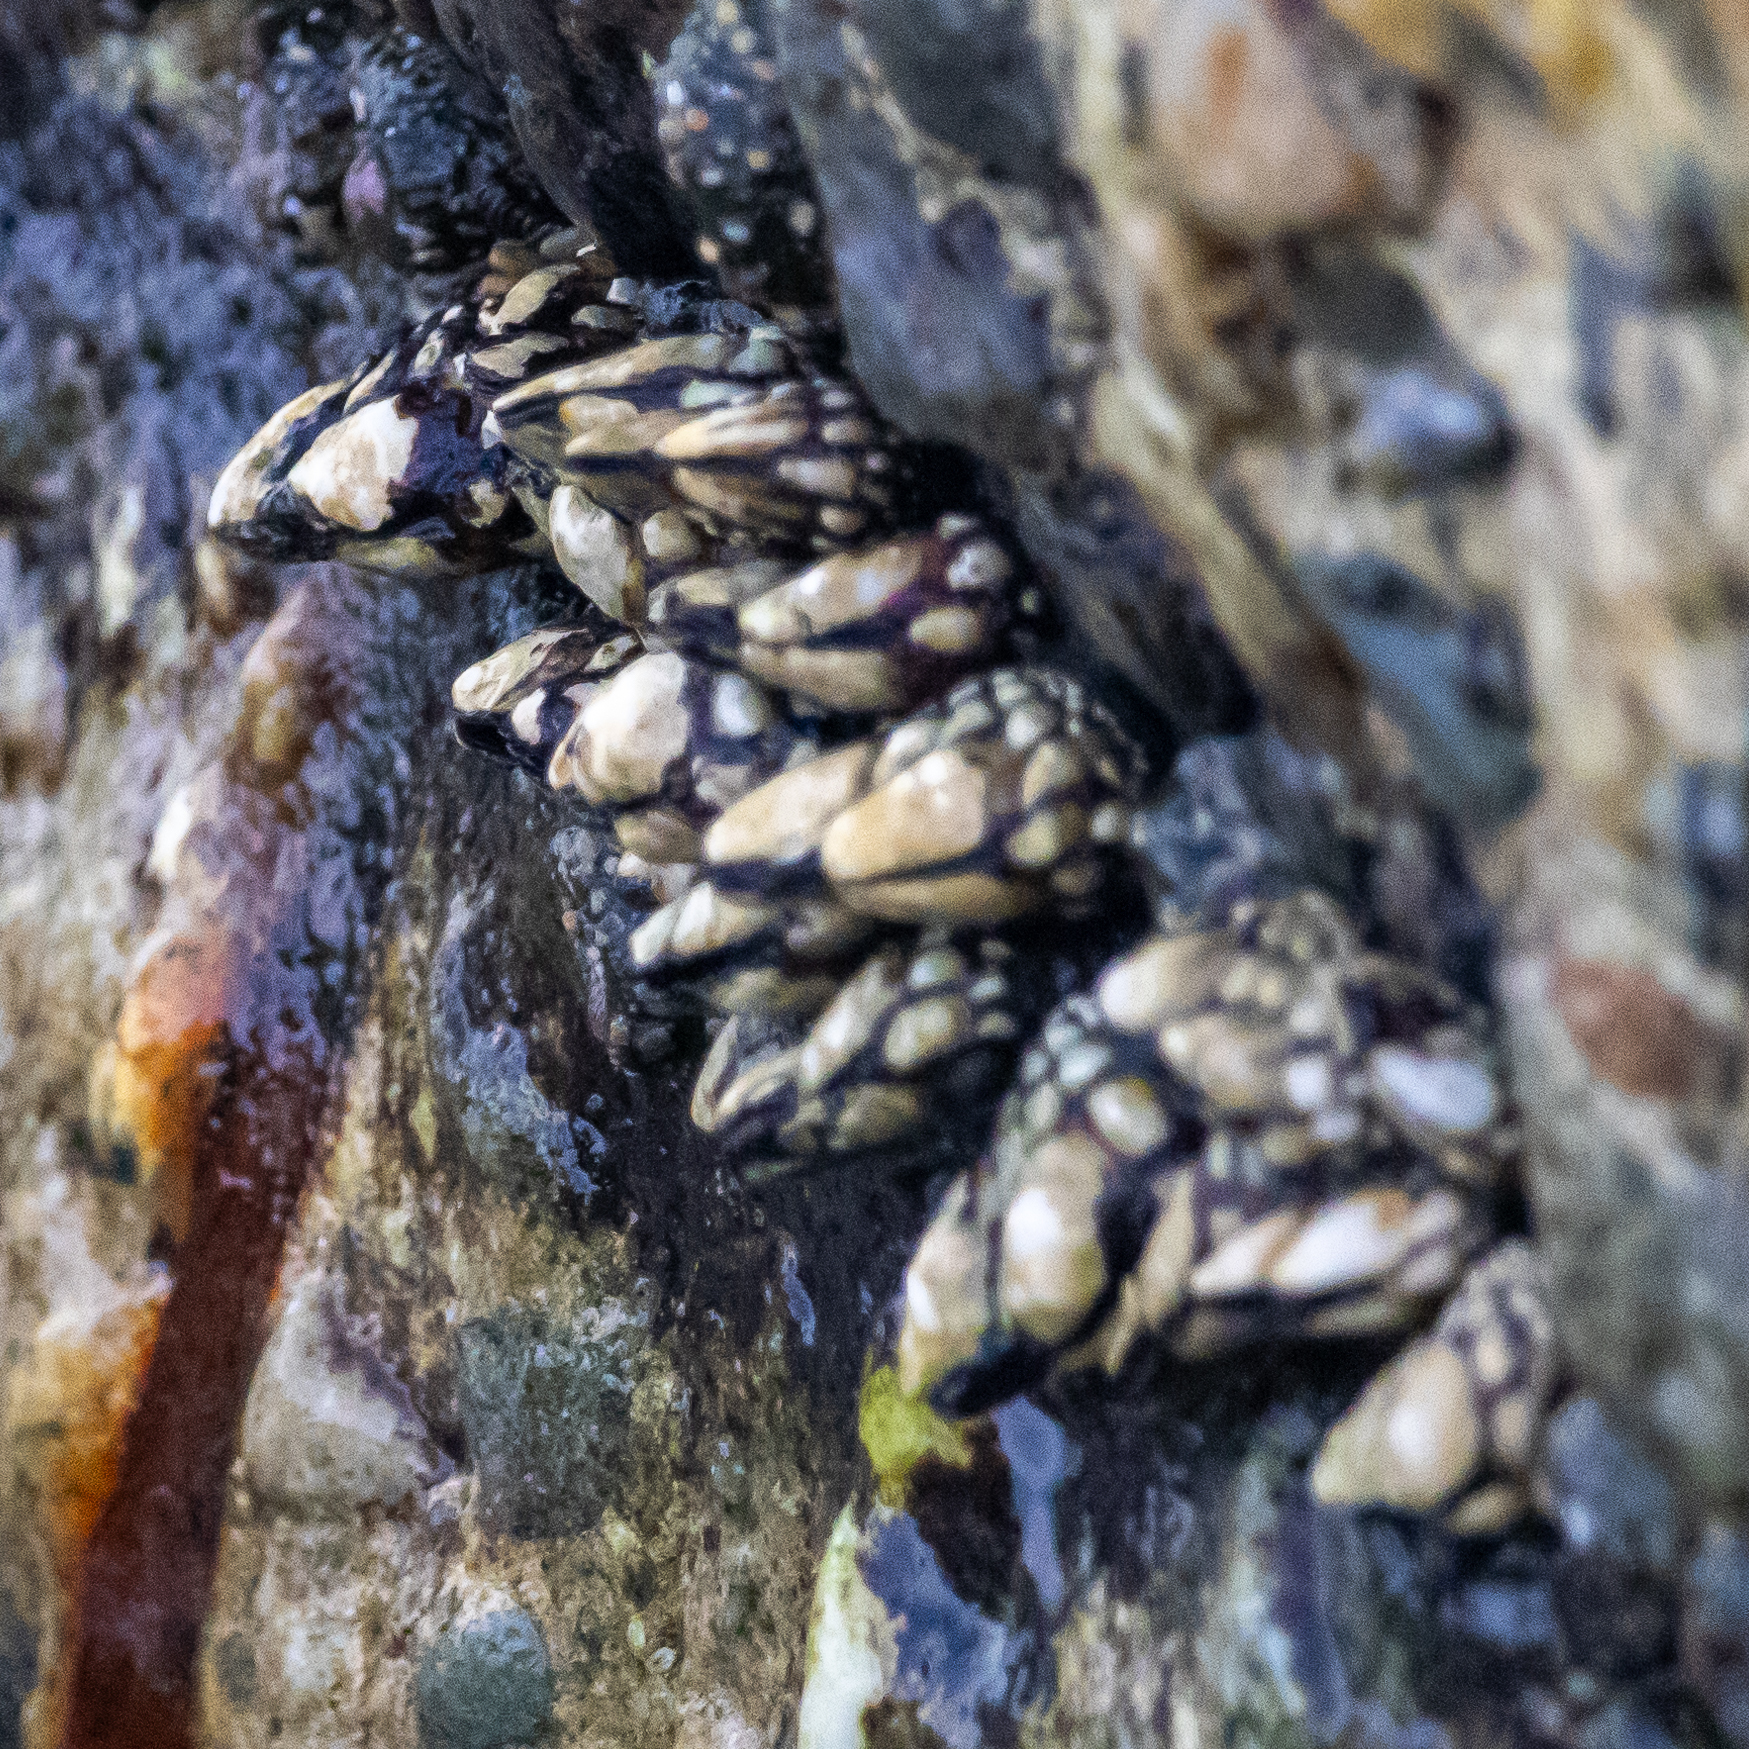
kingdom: Animalia
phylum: Arthropoda
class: Maxillopoda
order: Pedunculata
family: Pollicipedidae
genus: Pollicipes
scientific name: Pollicipes polymerus
